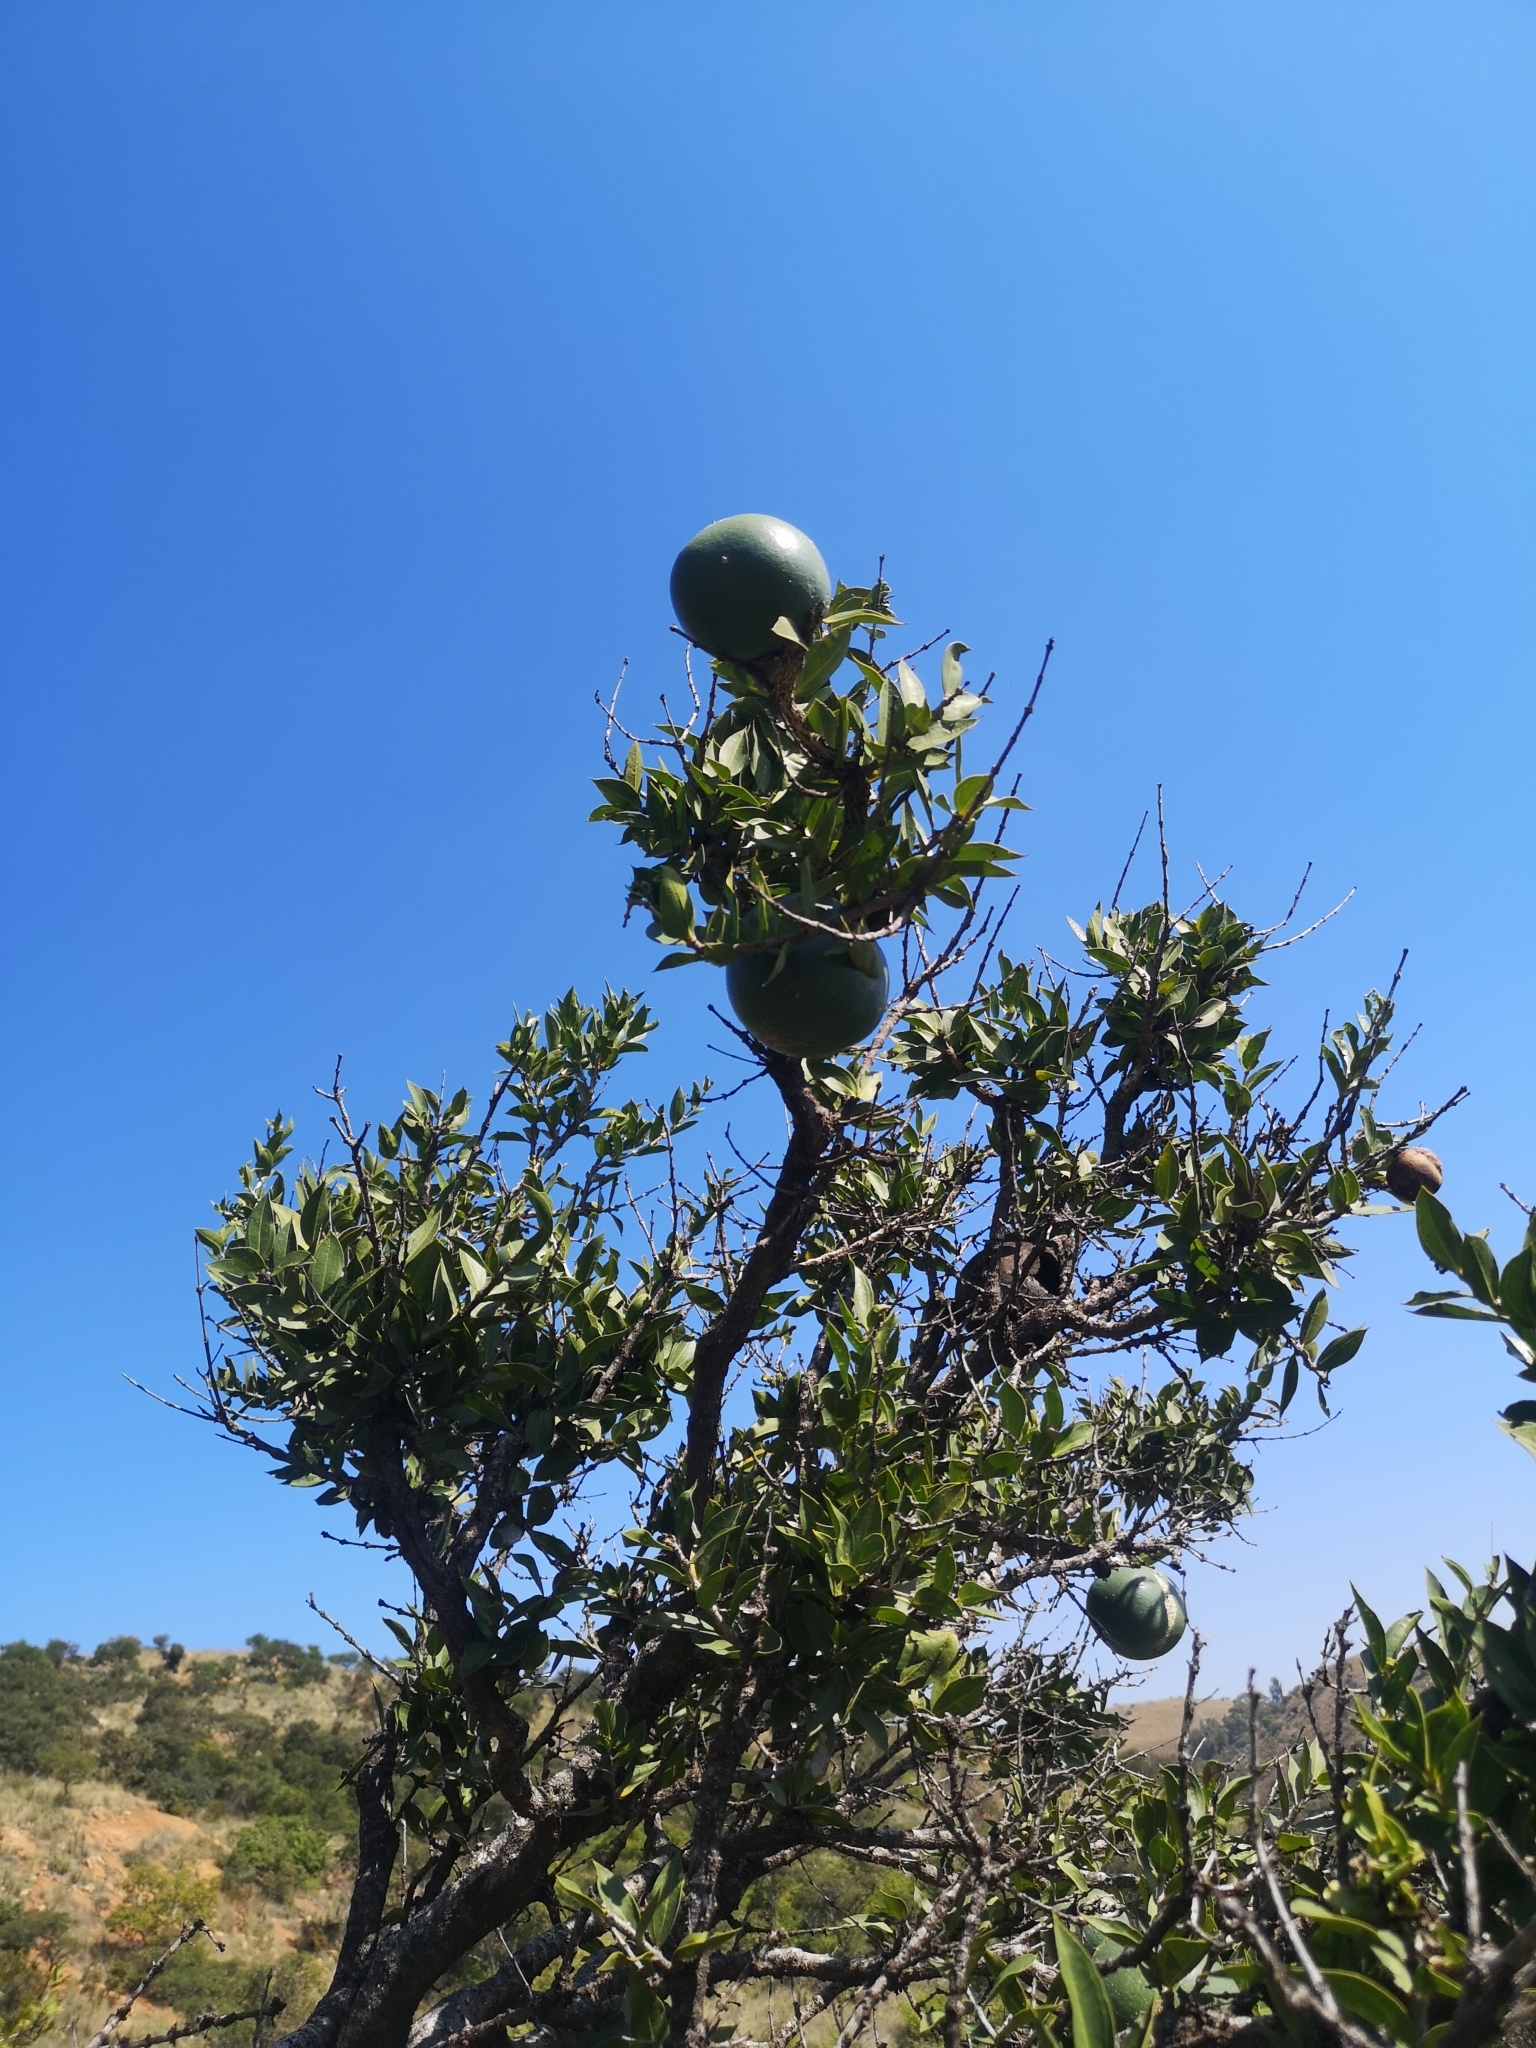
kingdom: Plantae
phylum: Tracheophyta
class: Magnoliopsida
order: Gentianales
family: Loganiaceae
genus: Strychnos
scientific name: Strychnos pungens
